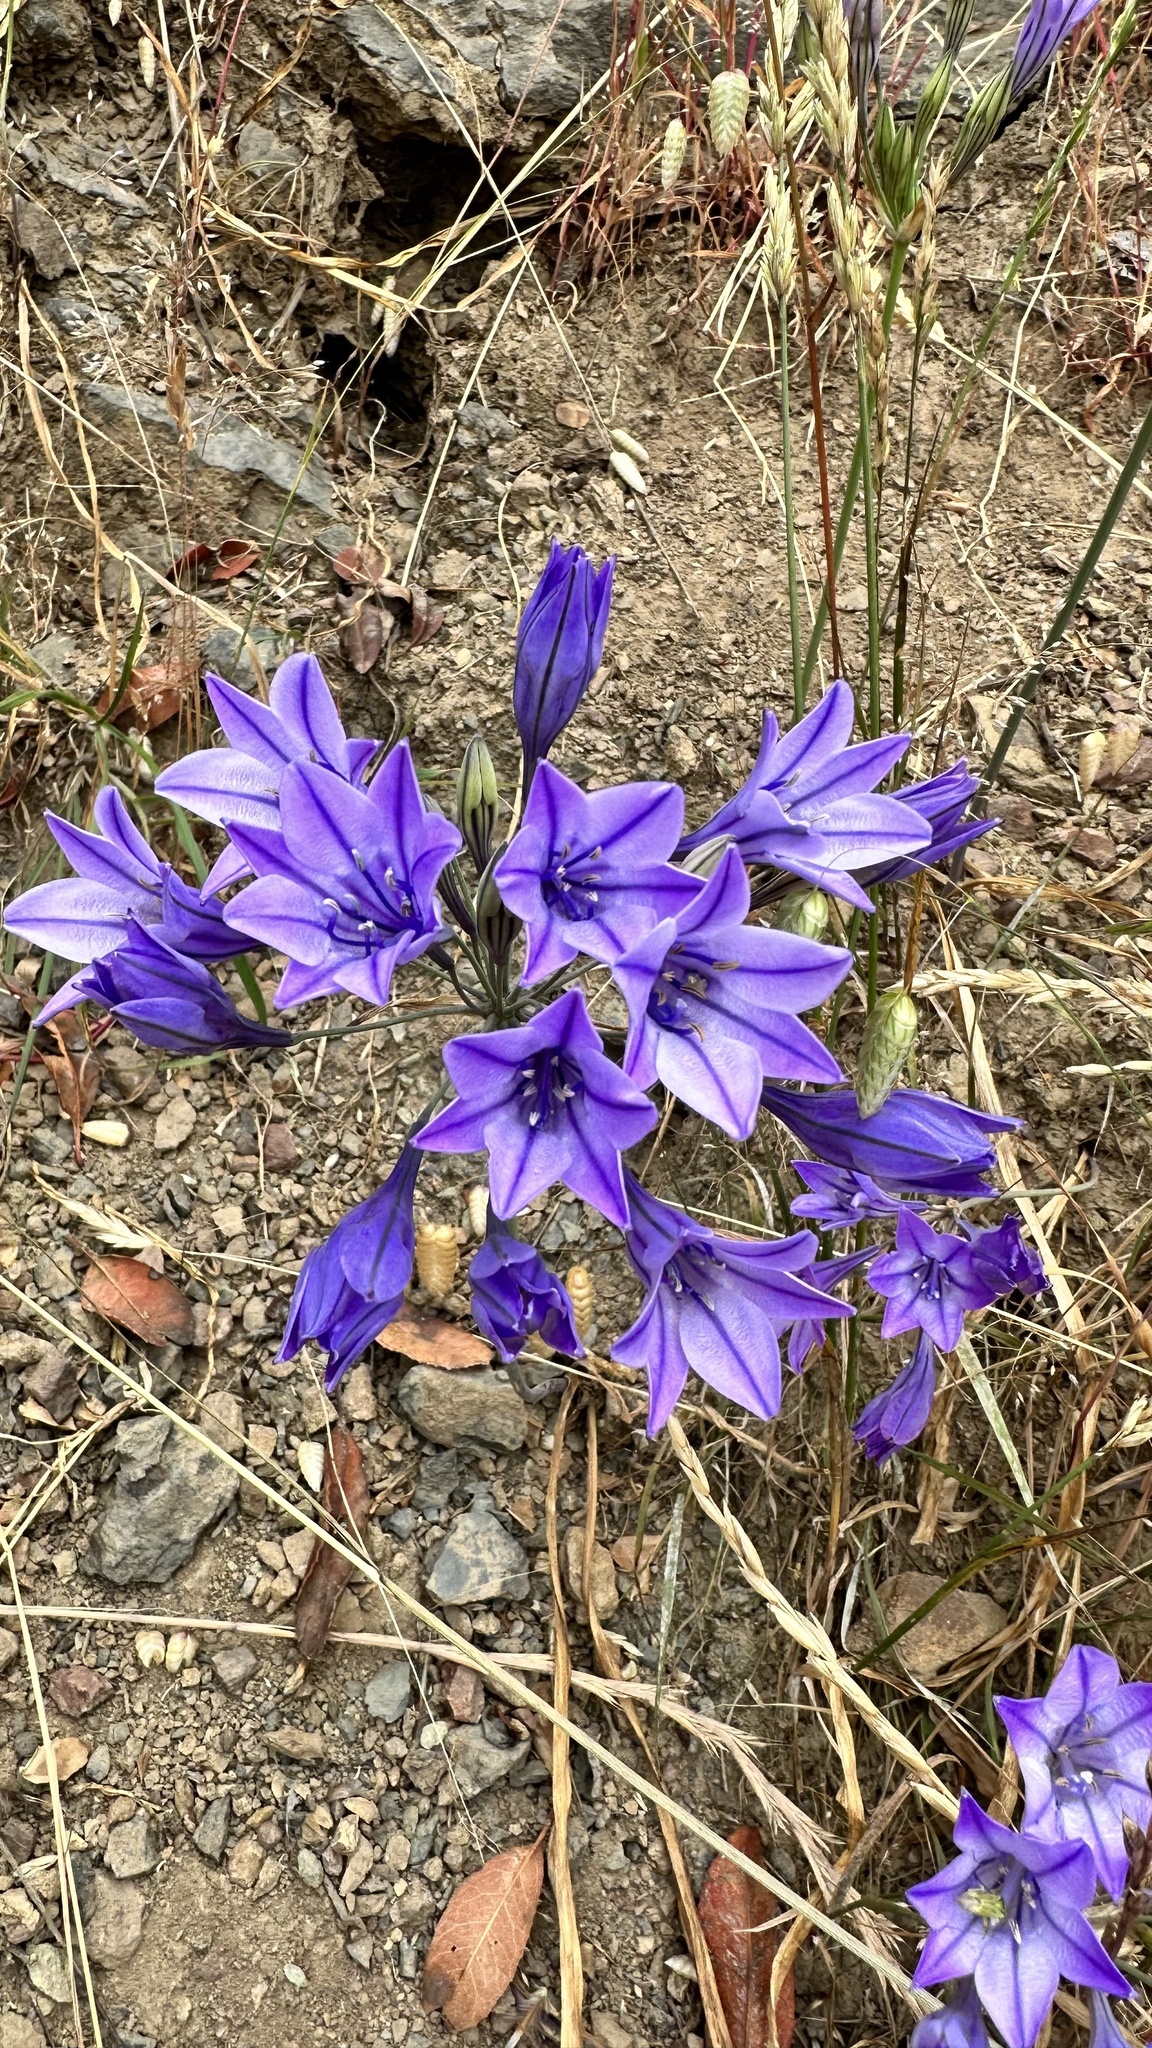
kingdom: Plantae
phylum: Tracheophyta
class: Liliopsida
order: Asparagales
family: Asparagaceae
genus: Triteleia
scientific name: Triteleia laxa
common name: Triplet-lily
